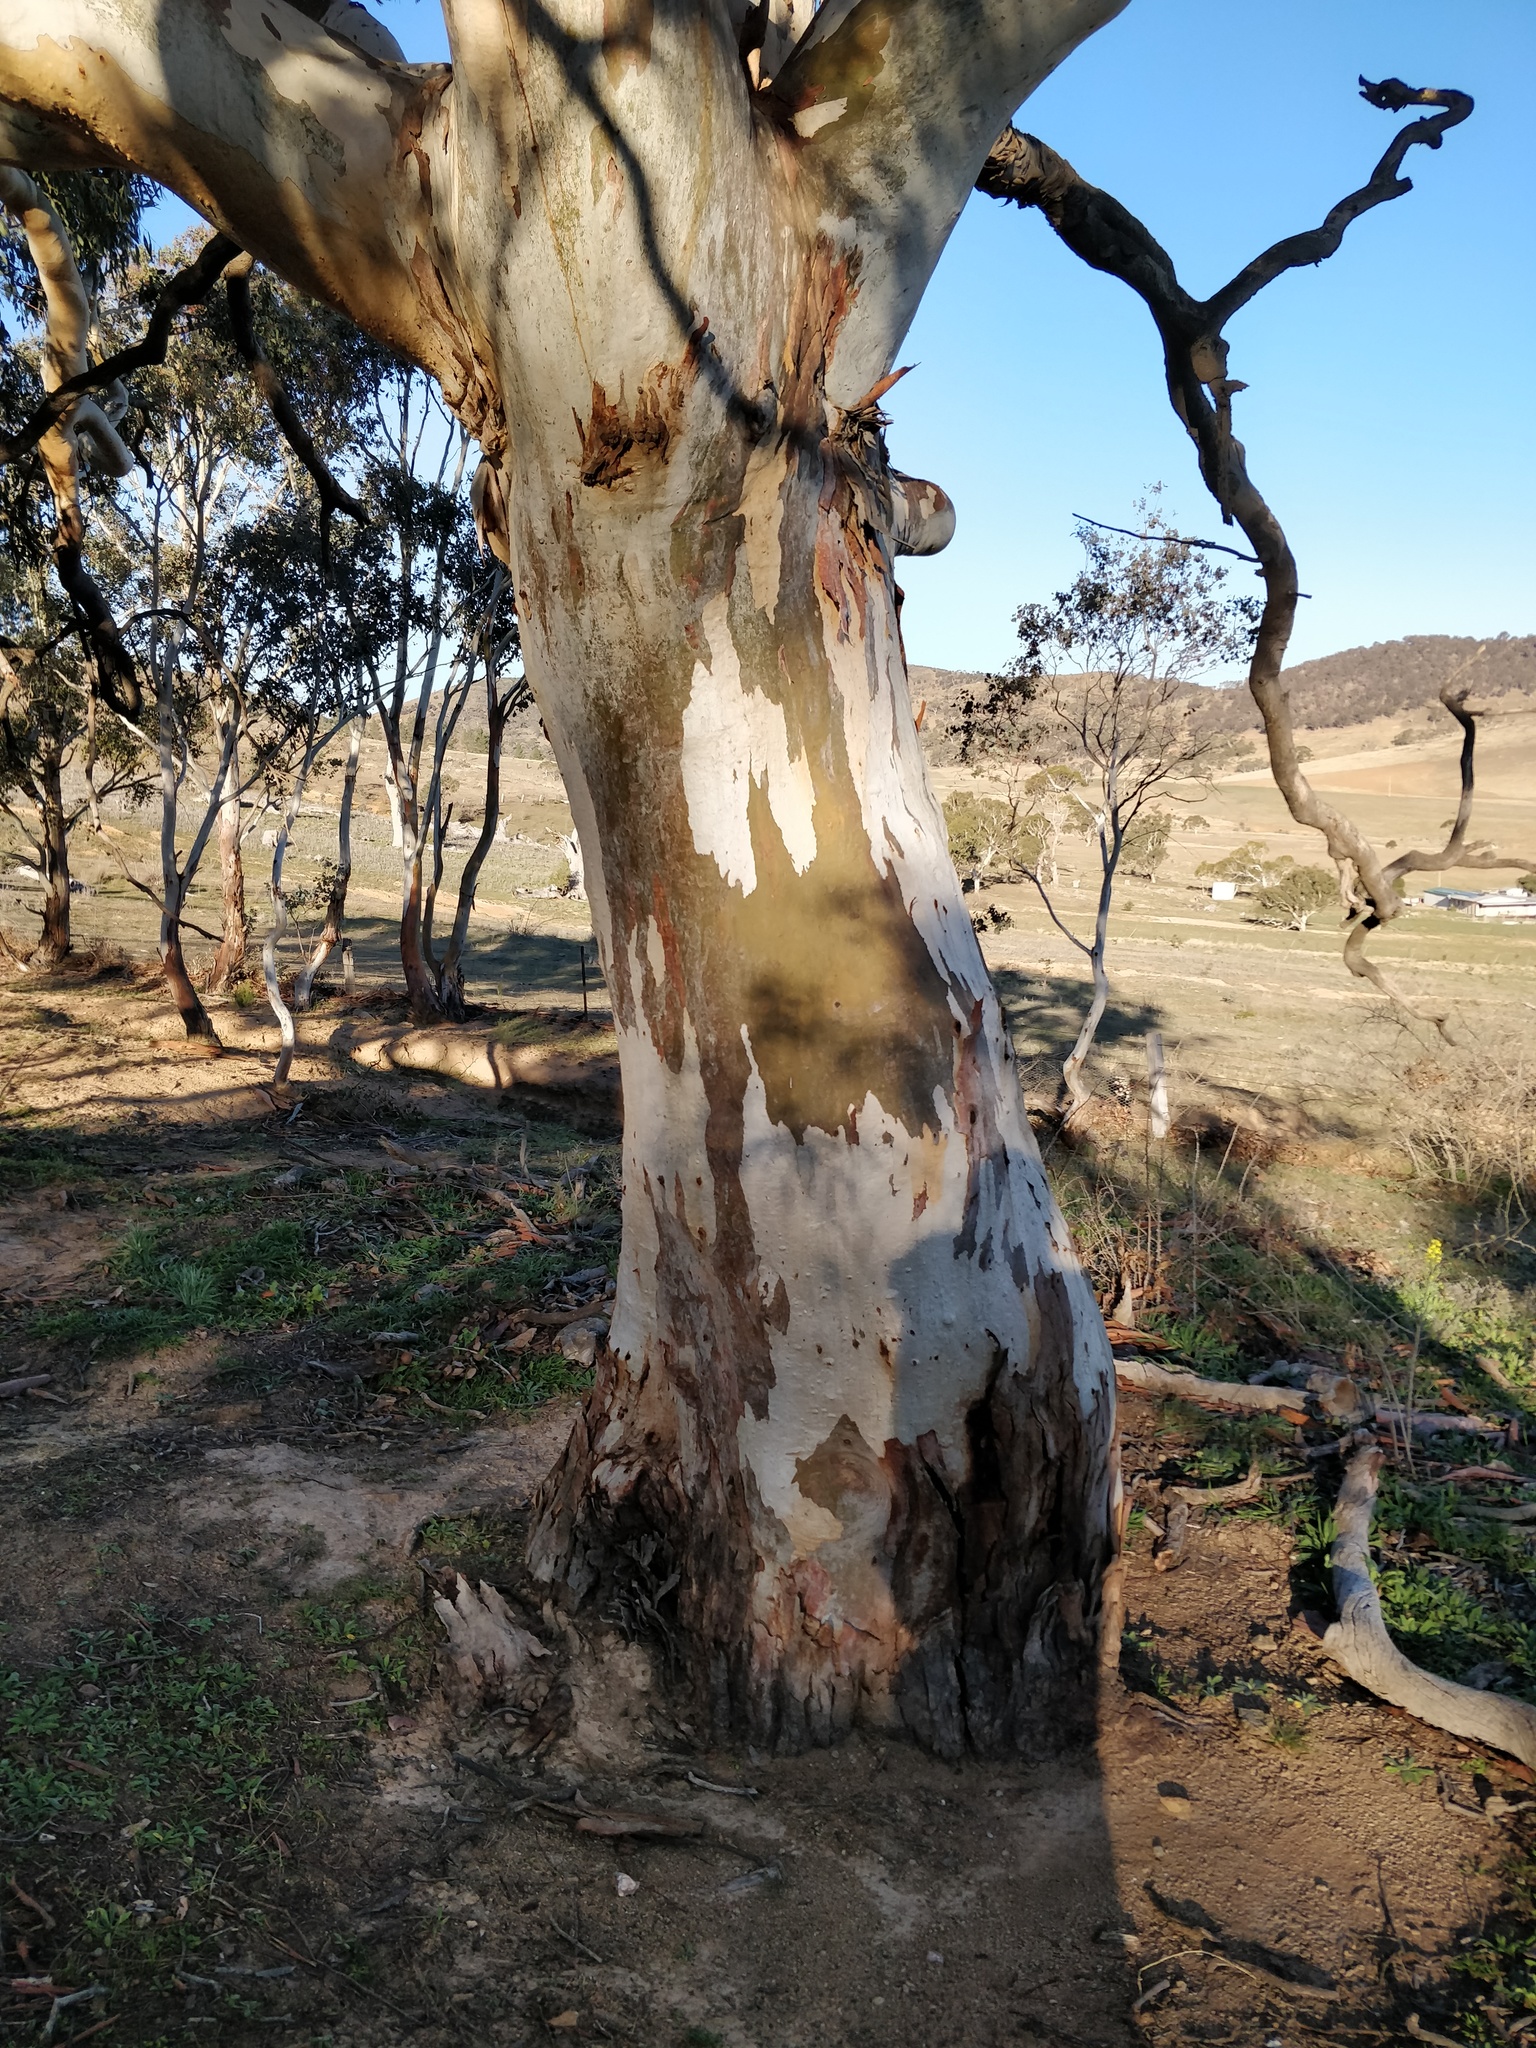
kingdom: Plantae
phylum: Tracheophyta
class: Magnoliopsida
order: Myrtales
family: Myrtaceae
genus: Eucalyptus
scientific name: Eucalyptus rubida
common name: Candlebark
